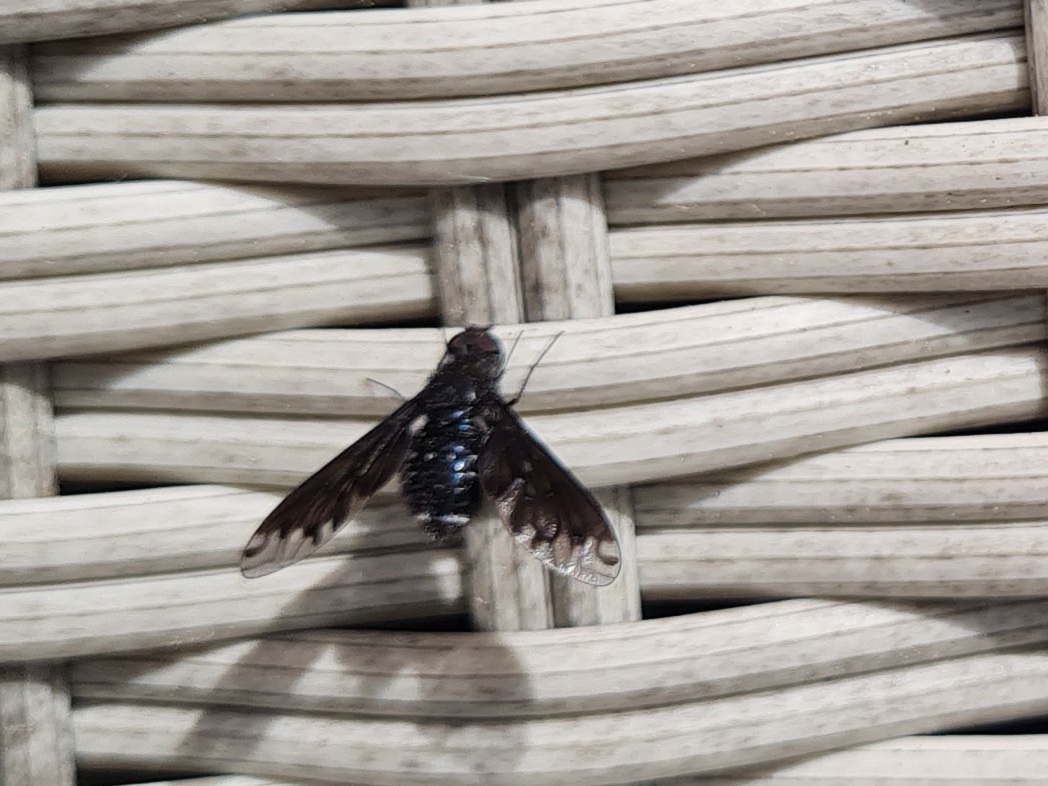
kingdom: Animalia
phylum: Arthropoda
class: Insecta
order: Diptera
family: Bombyliidae
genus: Anthrax
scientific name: Anthrax anthrax
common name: Anthracite bee-fly
